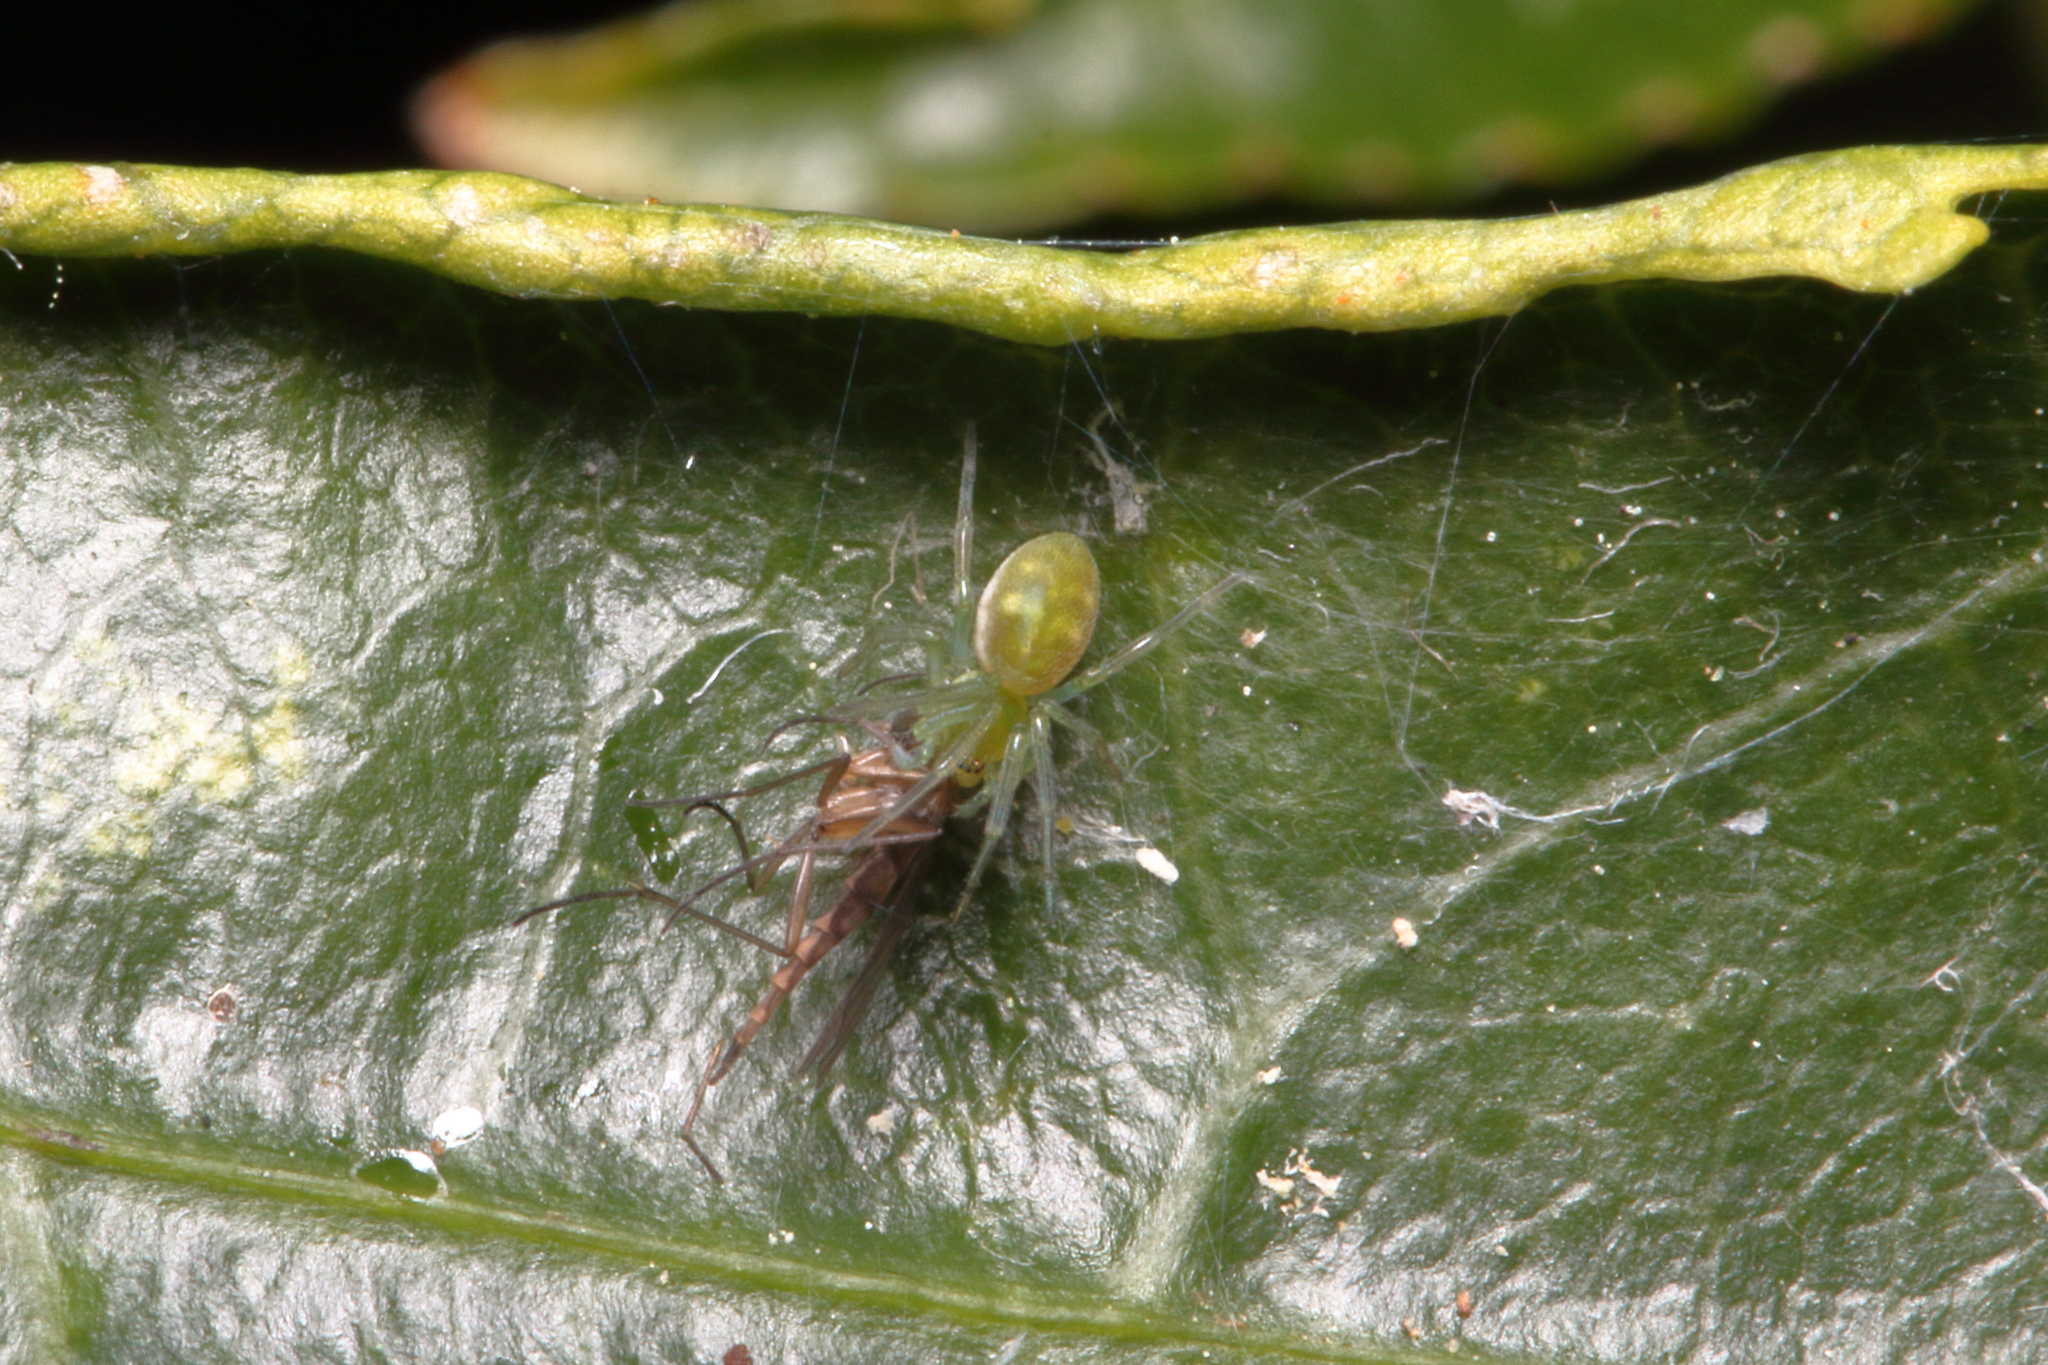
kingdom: Animalia
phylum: Arthropoda
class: Arachnida
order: Araneae
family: Dictynidae
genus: Paradictyna
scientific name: Paradictyna ilamia
